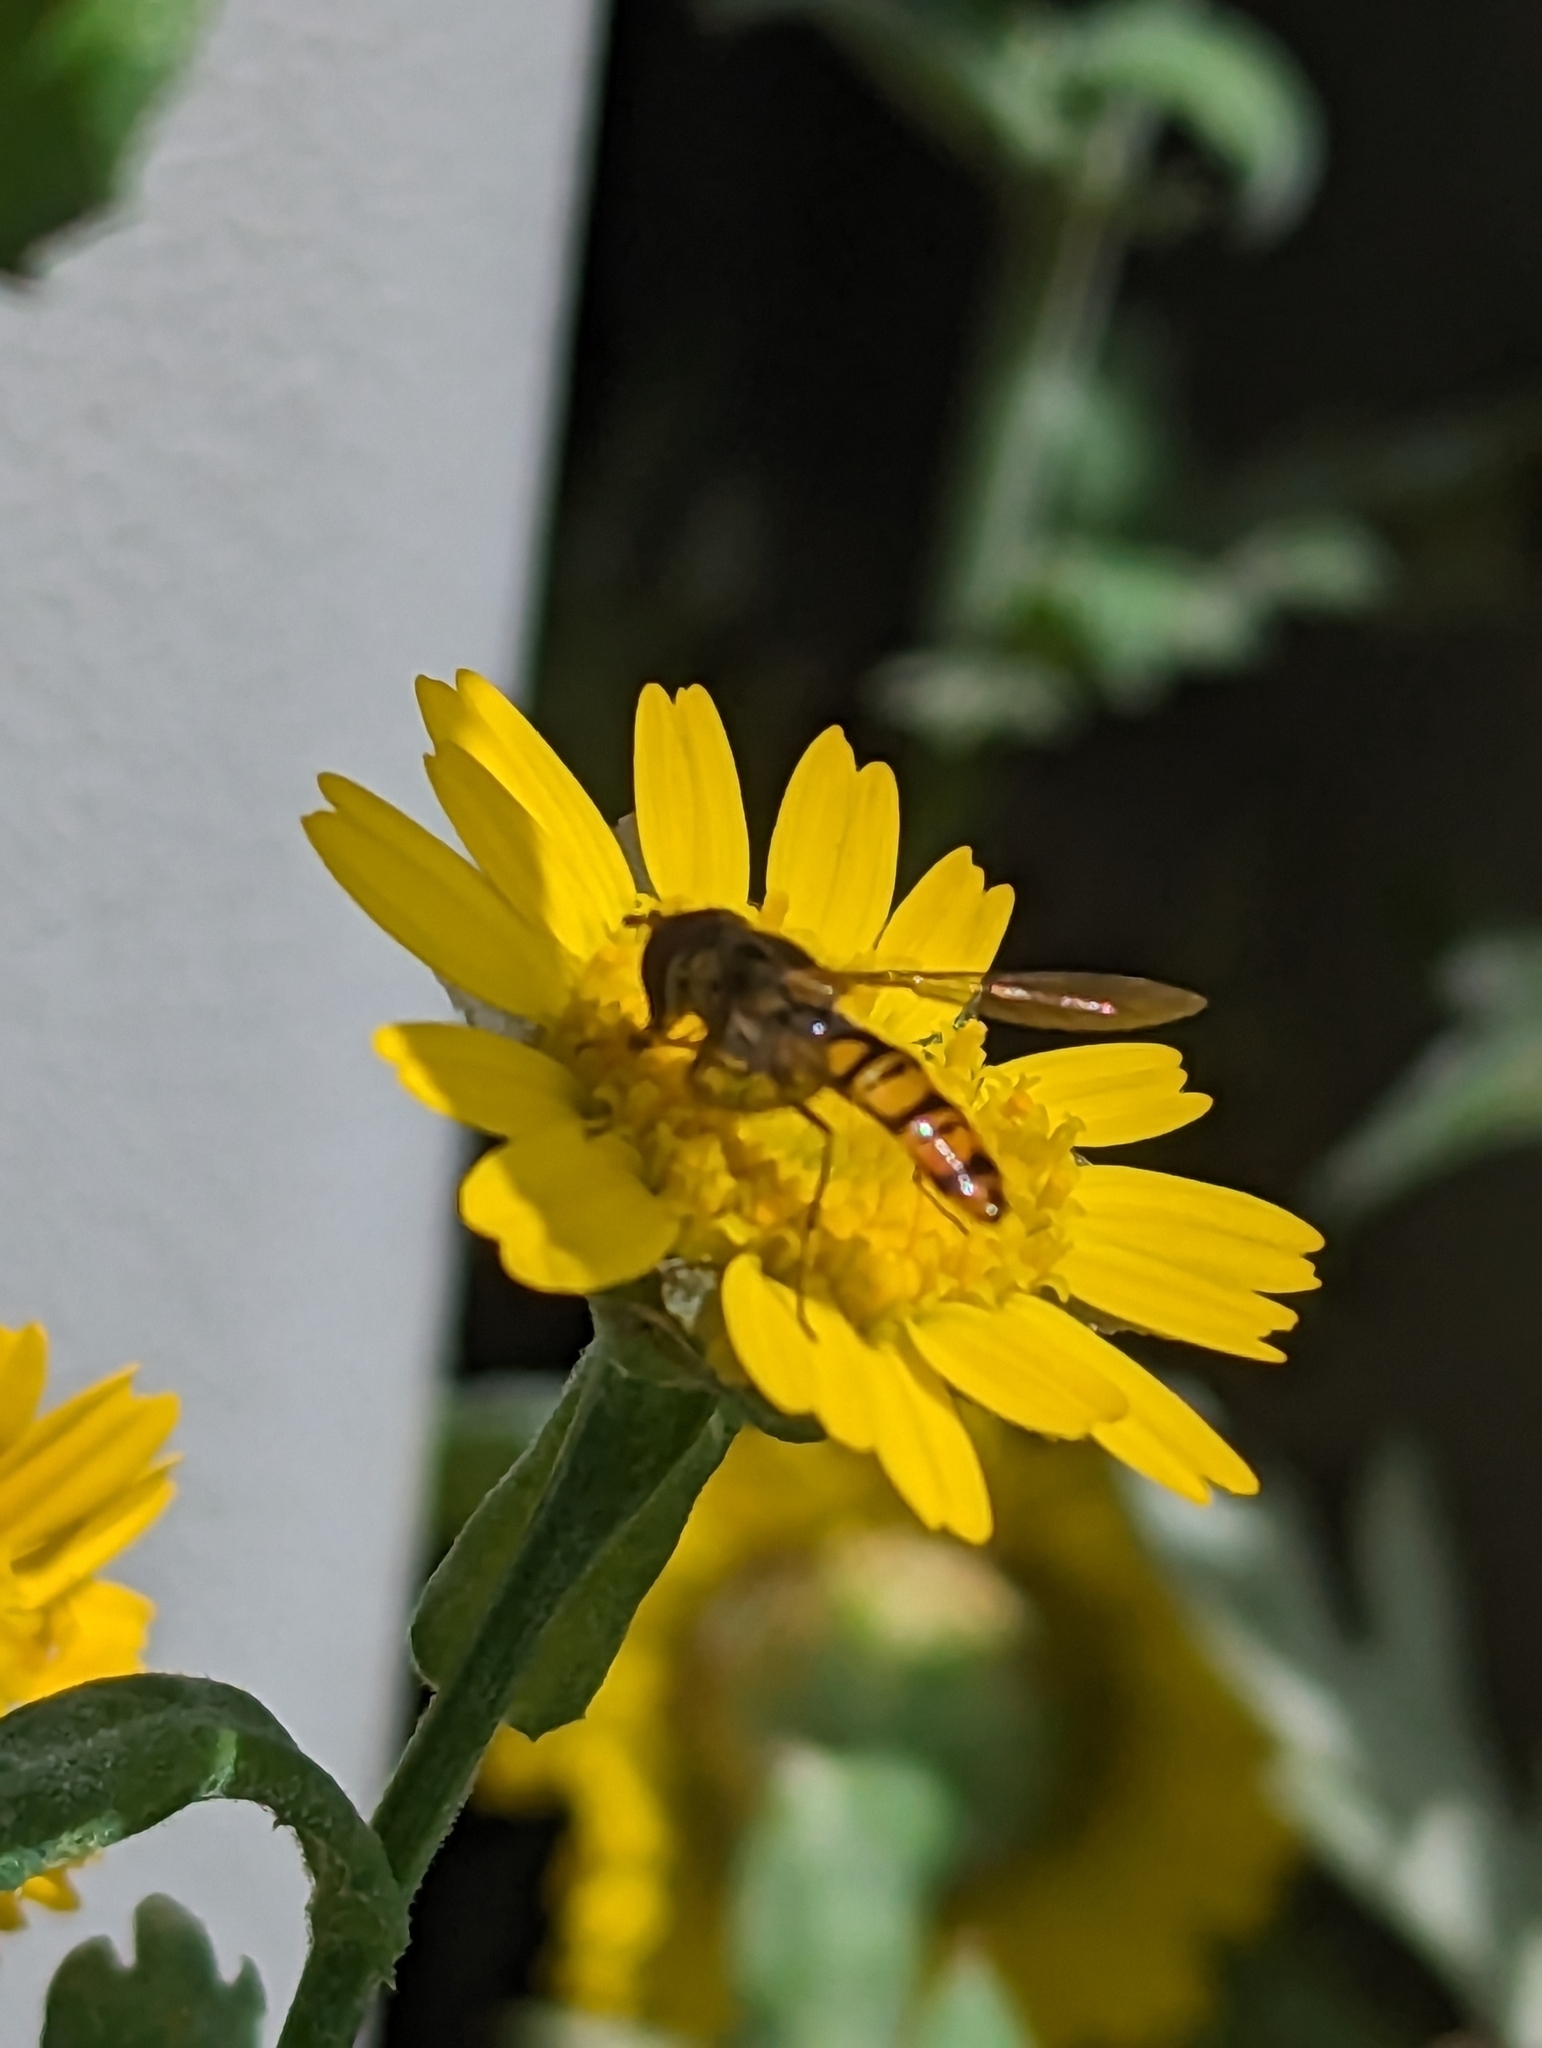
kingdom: Animalia
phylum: Arthropoda
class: Insecta
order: Diptera
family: Syrphidae
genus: Episyrphus
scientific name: Episyrphus balteatus
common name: Marmalade hoverfly
